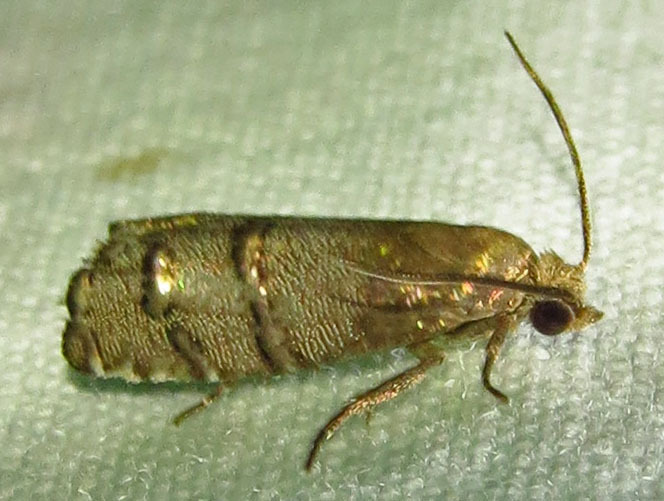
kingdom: Animalia
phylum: Arthropoda
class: Insecta
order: Lepidoptera
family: Tortricidae
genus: Cydia
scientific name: Cydia toreuta
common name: Eastern pine seedworm moth
